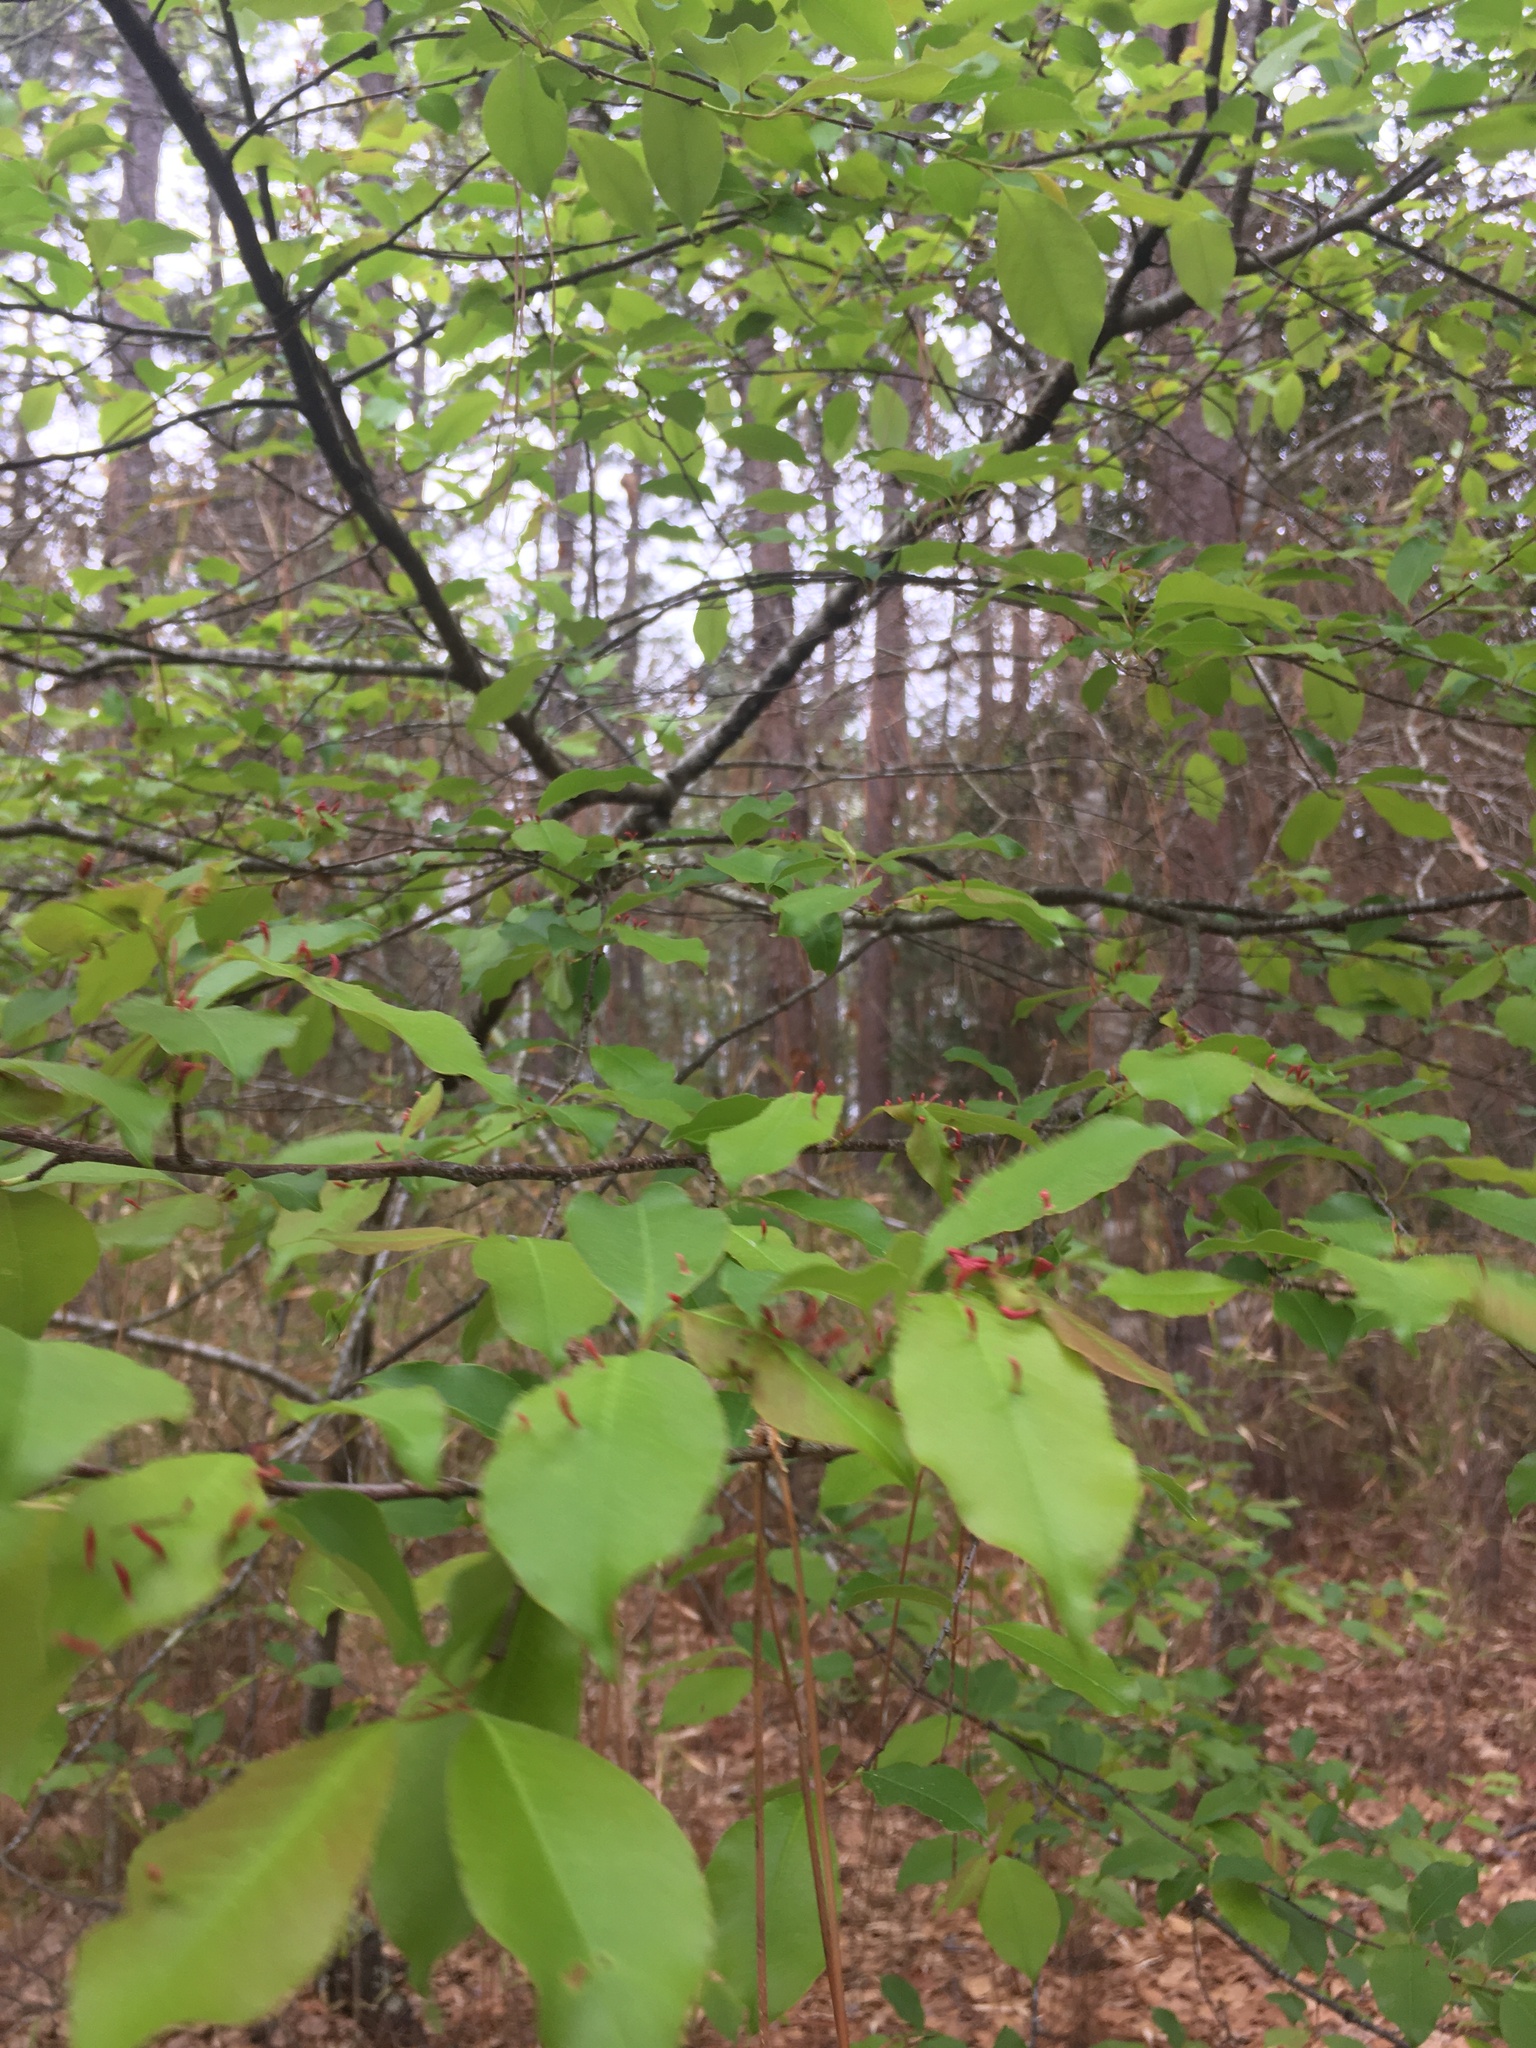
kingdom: Animalia
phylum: Arthropoda
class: Arachnida
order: Trombidiformes
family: Eriophyidae
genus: Eriophyes
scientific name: Eriophyes
